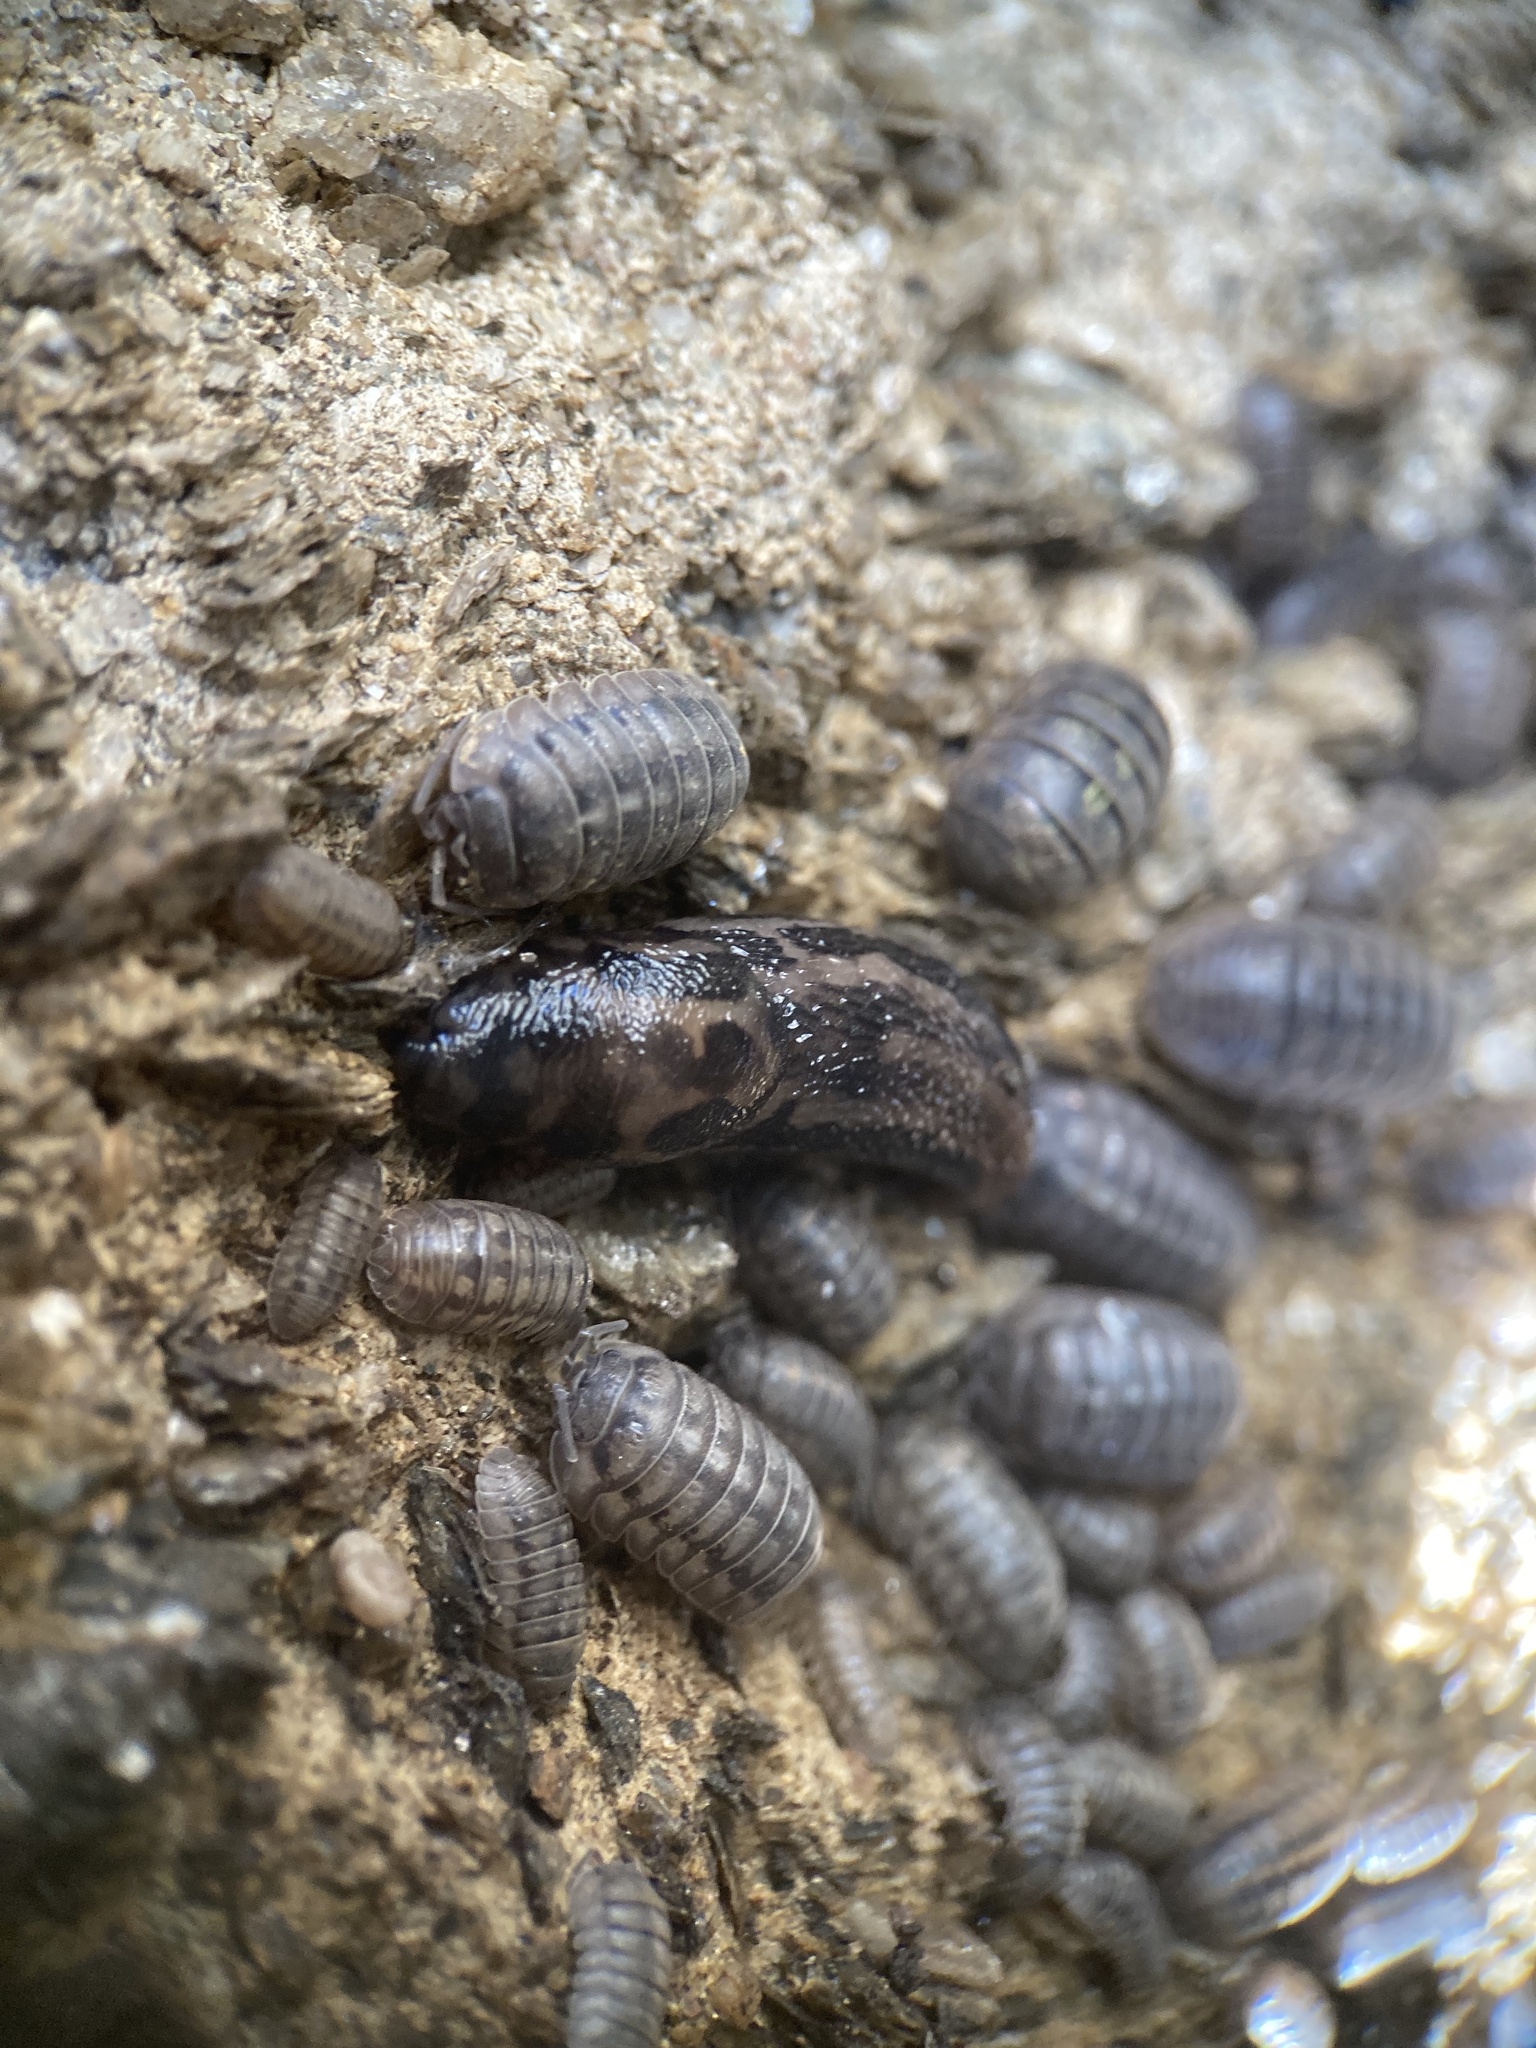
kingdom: Animalia
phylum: Mollusca
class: Gastropoda
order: Stylommatophora
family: Limacidae
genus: Limax
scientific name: Limax maximus
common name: Great grey slug
